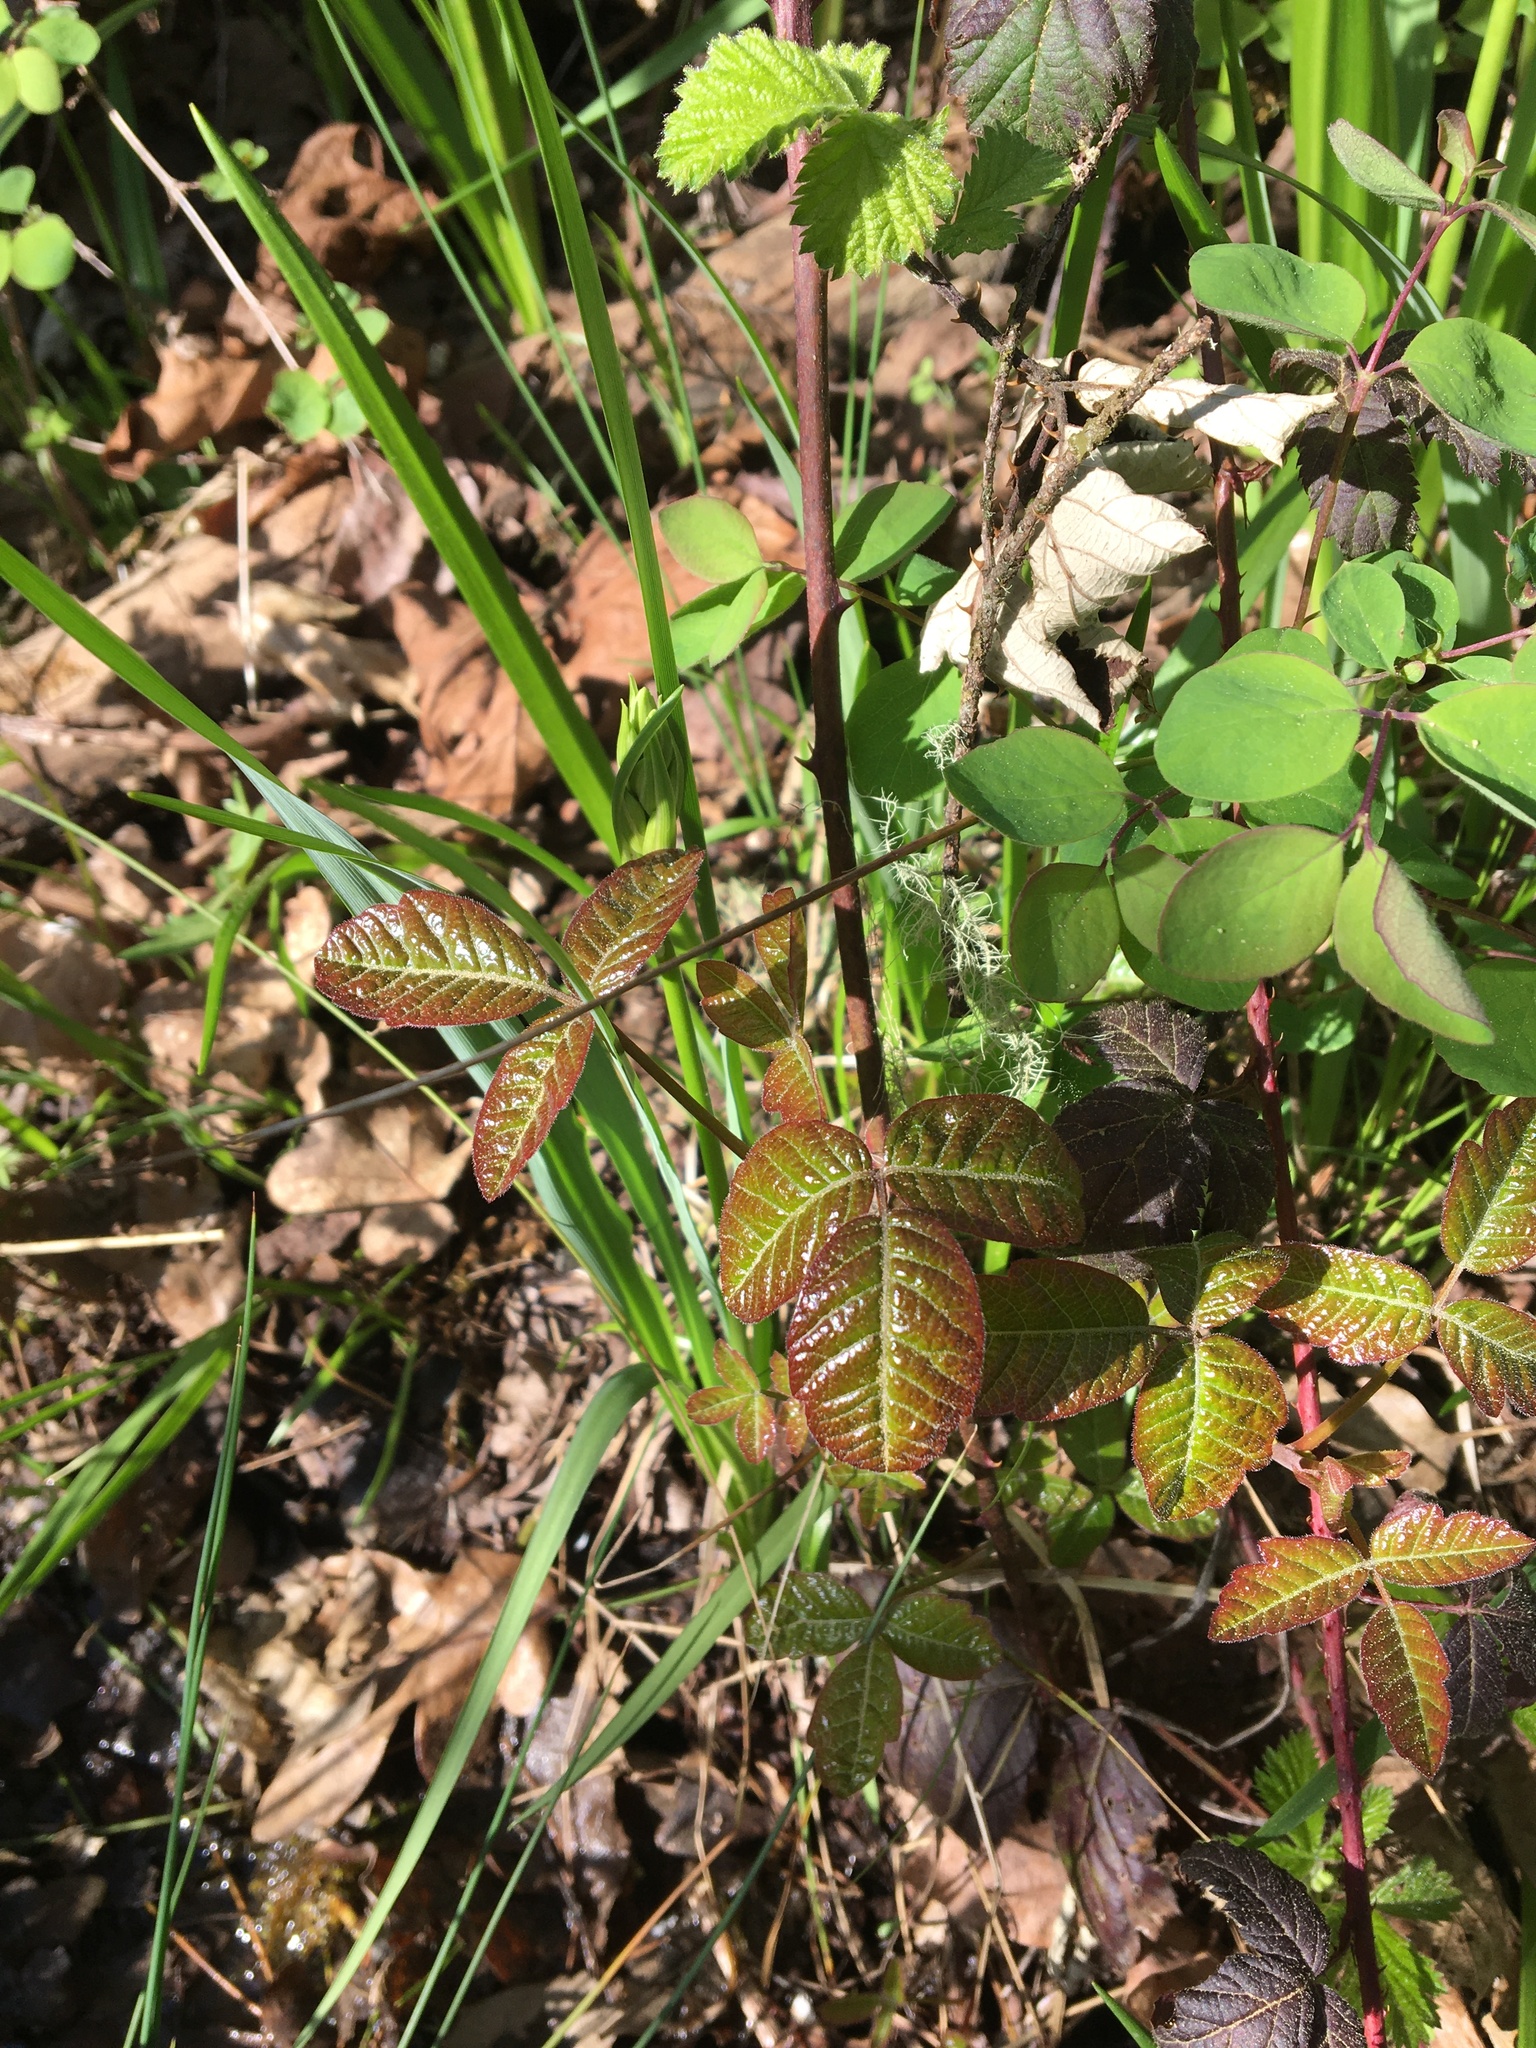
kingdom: Plantae
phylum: Tracheophyta
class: Magnoliopsida
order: Sapindales
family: Anacardiaceae
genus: Toxicodendron
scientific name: Toxicodendron diversilobum
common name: Pacific poison-oak
